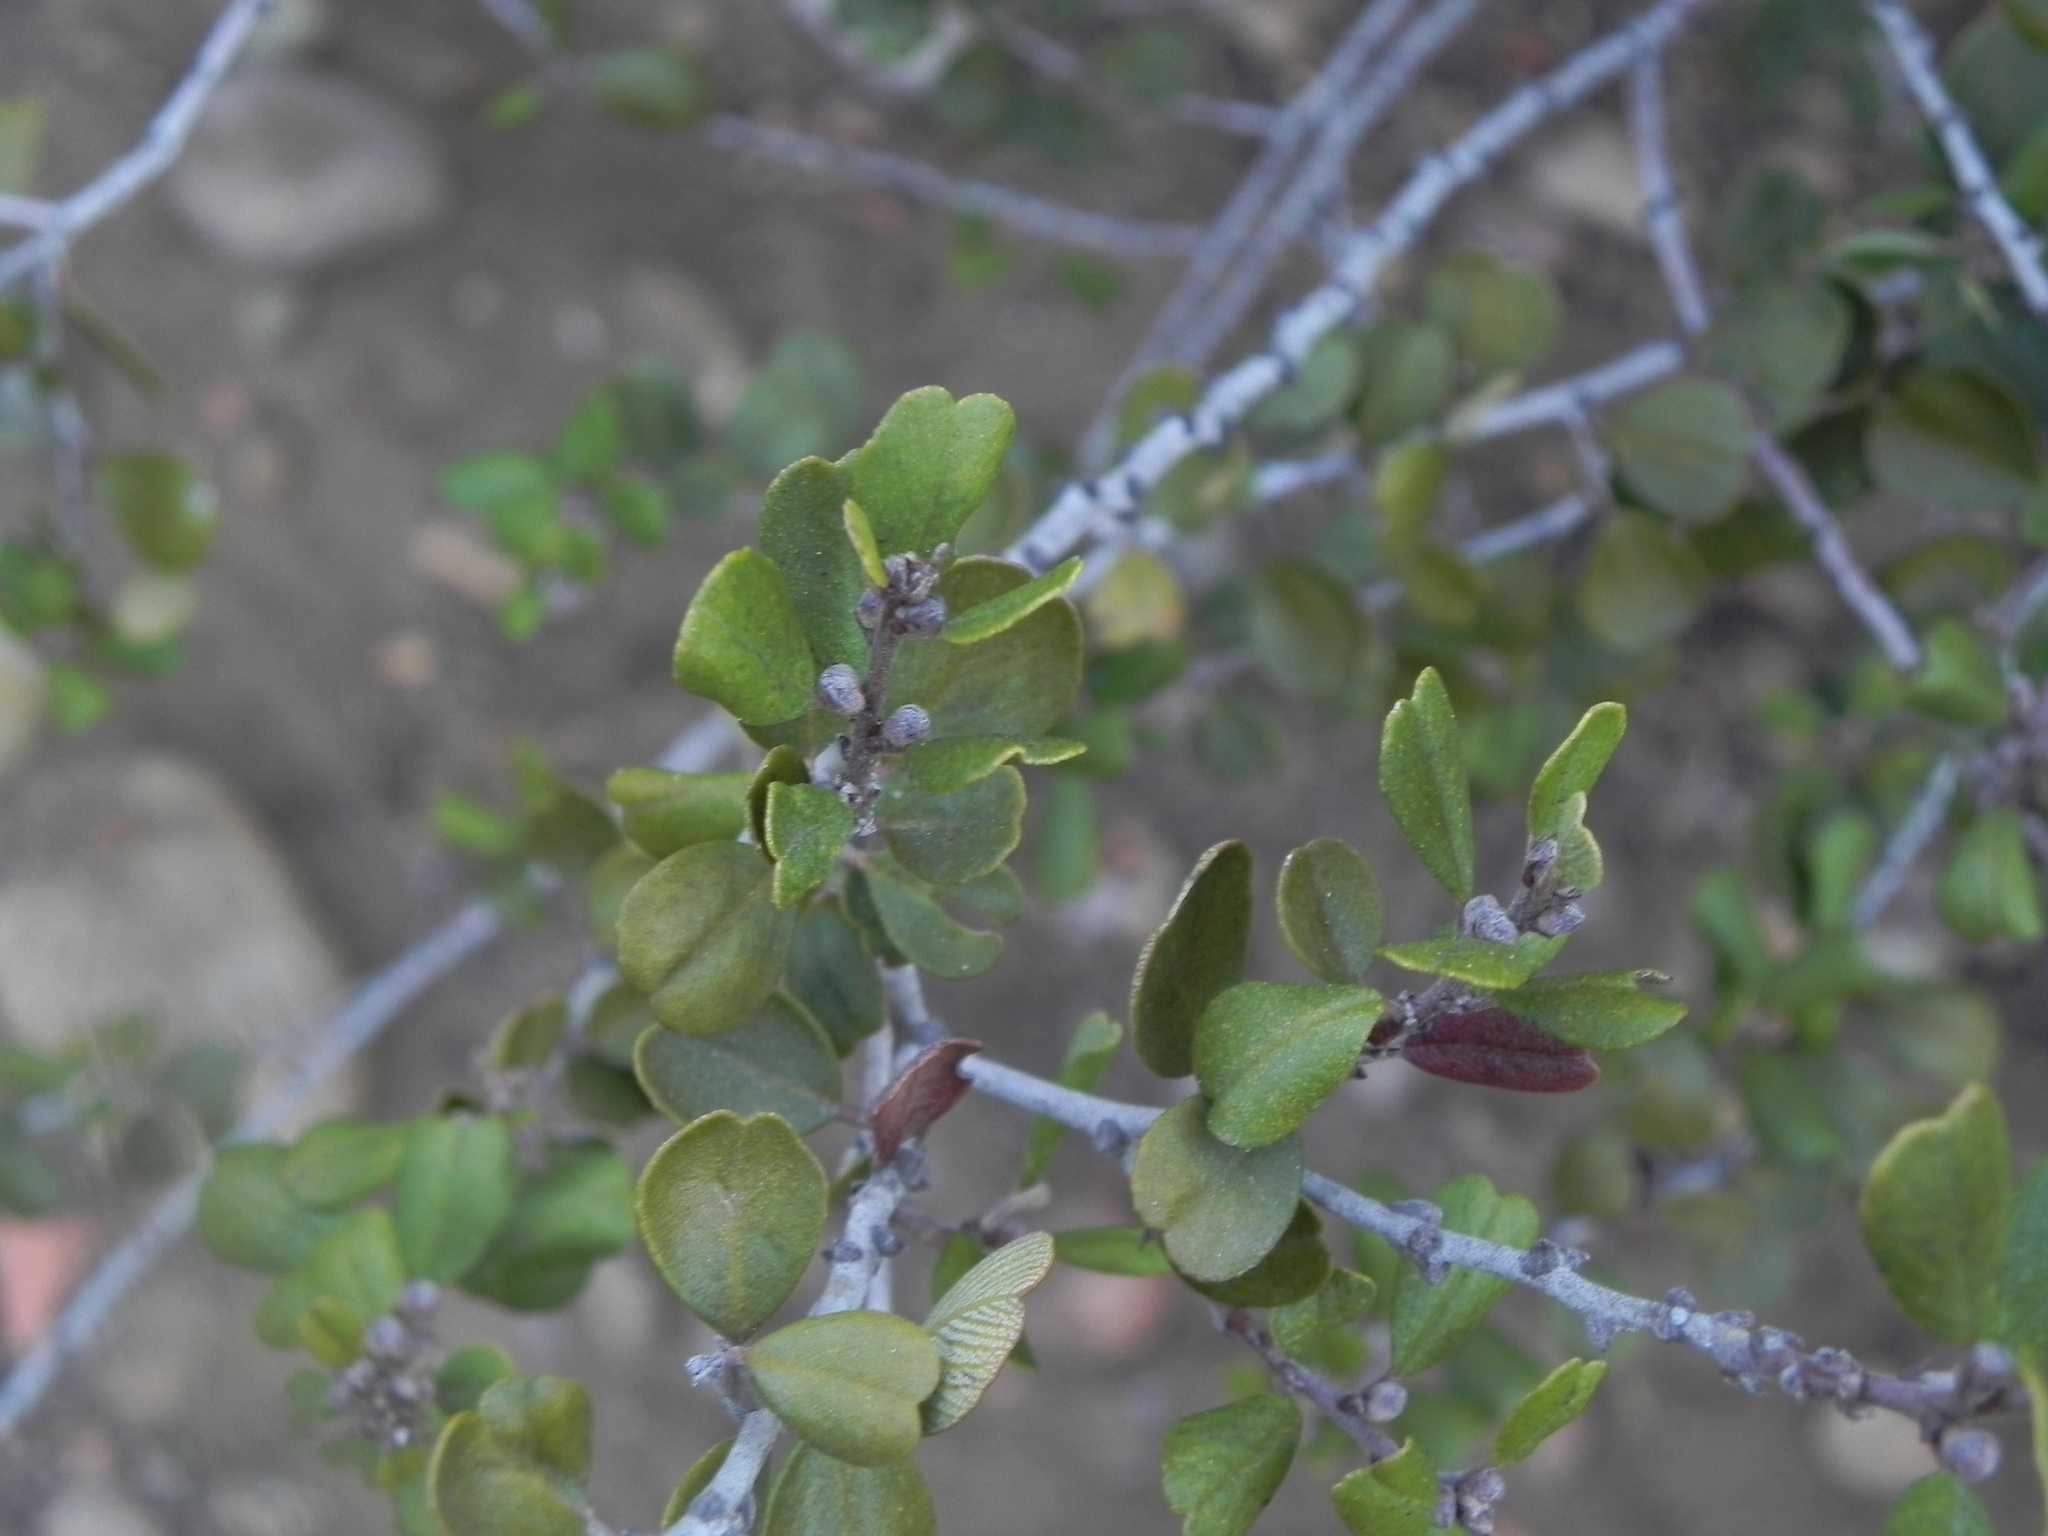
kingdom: Plantae
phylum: Tracheophyta
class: Magnoliopsida
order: Rosales
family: Rhamnaceae
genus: Ceanothus
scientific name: Ceanothus verrucosus
